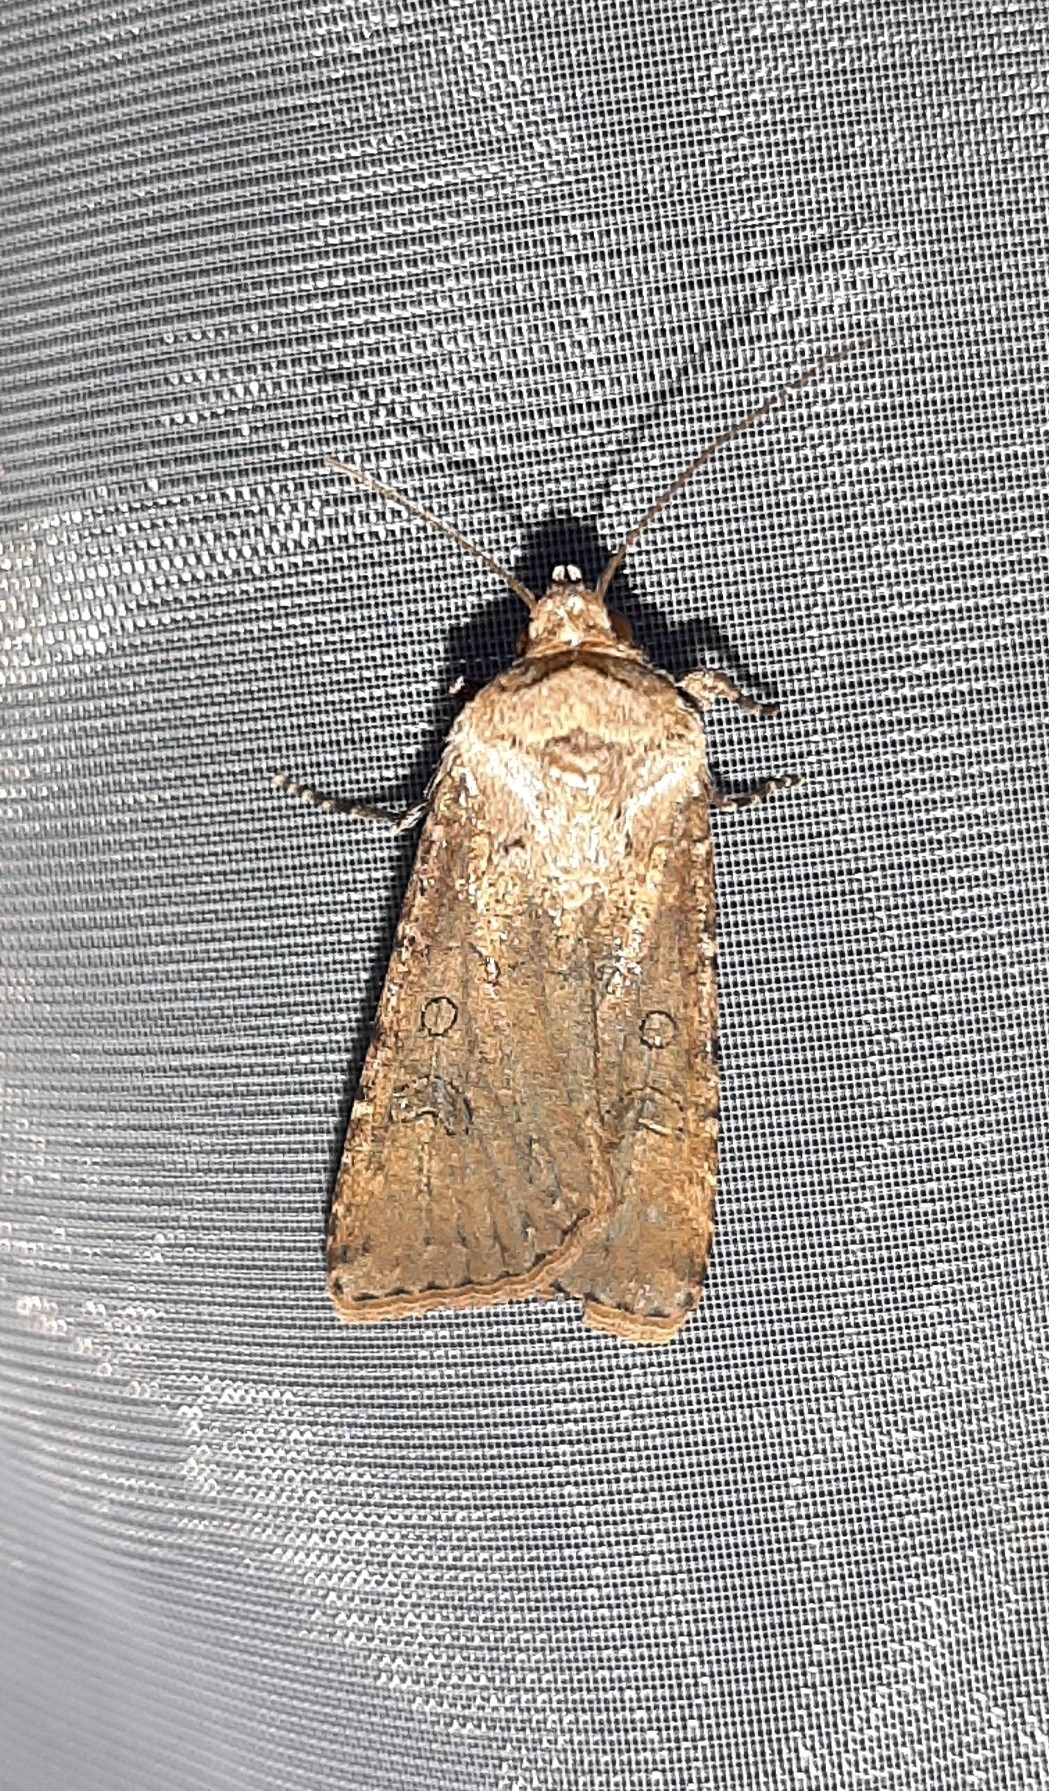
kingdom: Animalia
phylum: Arthropoda
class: Insecta
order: Lepidoptera
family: Noctuidae
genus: Agrotis
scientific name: Agrotis segetum
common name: Turnip moth
